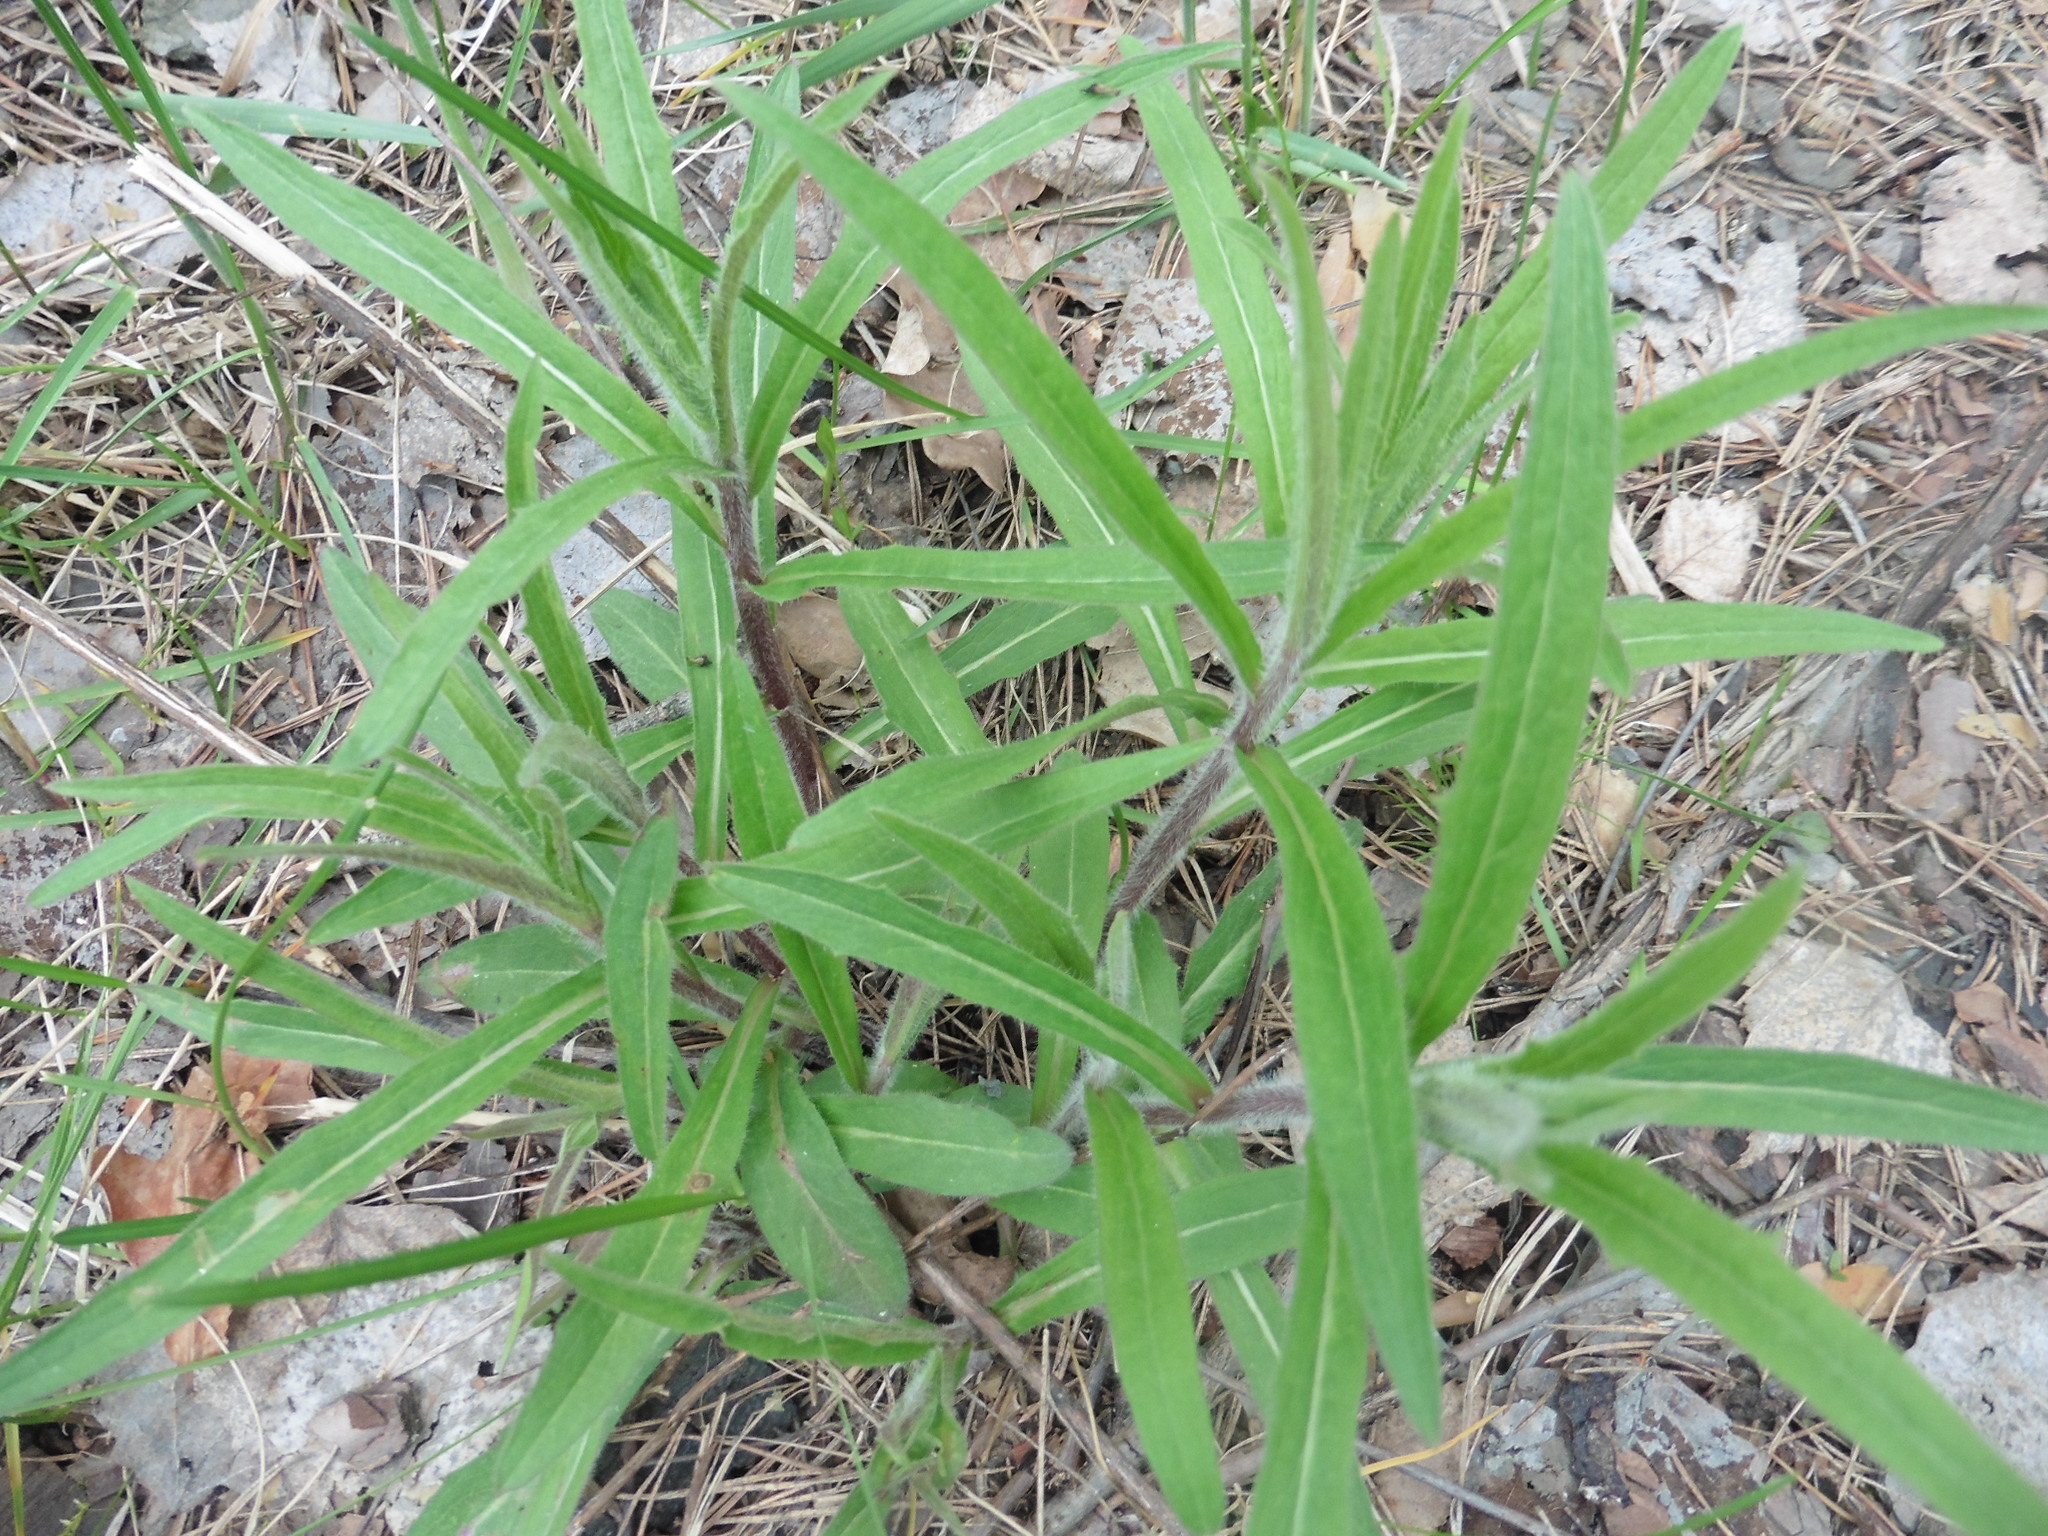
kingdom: Plantae
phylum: Tracheophyta
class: Magnoliopsida
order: Asterales
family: Asteraceae
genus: Hieracium
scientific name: Hieracium umbellatum
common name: Northern hawkweed
